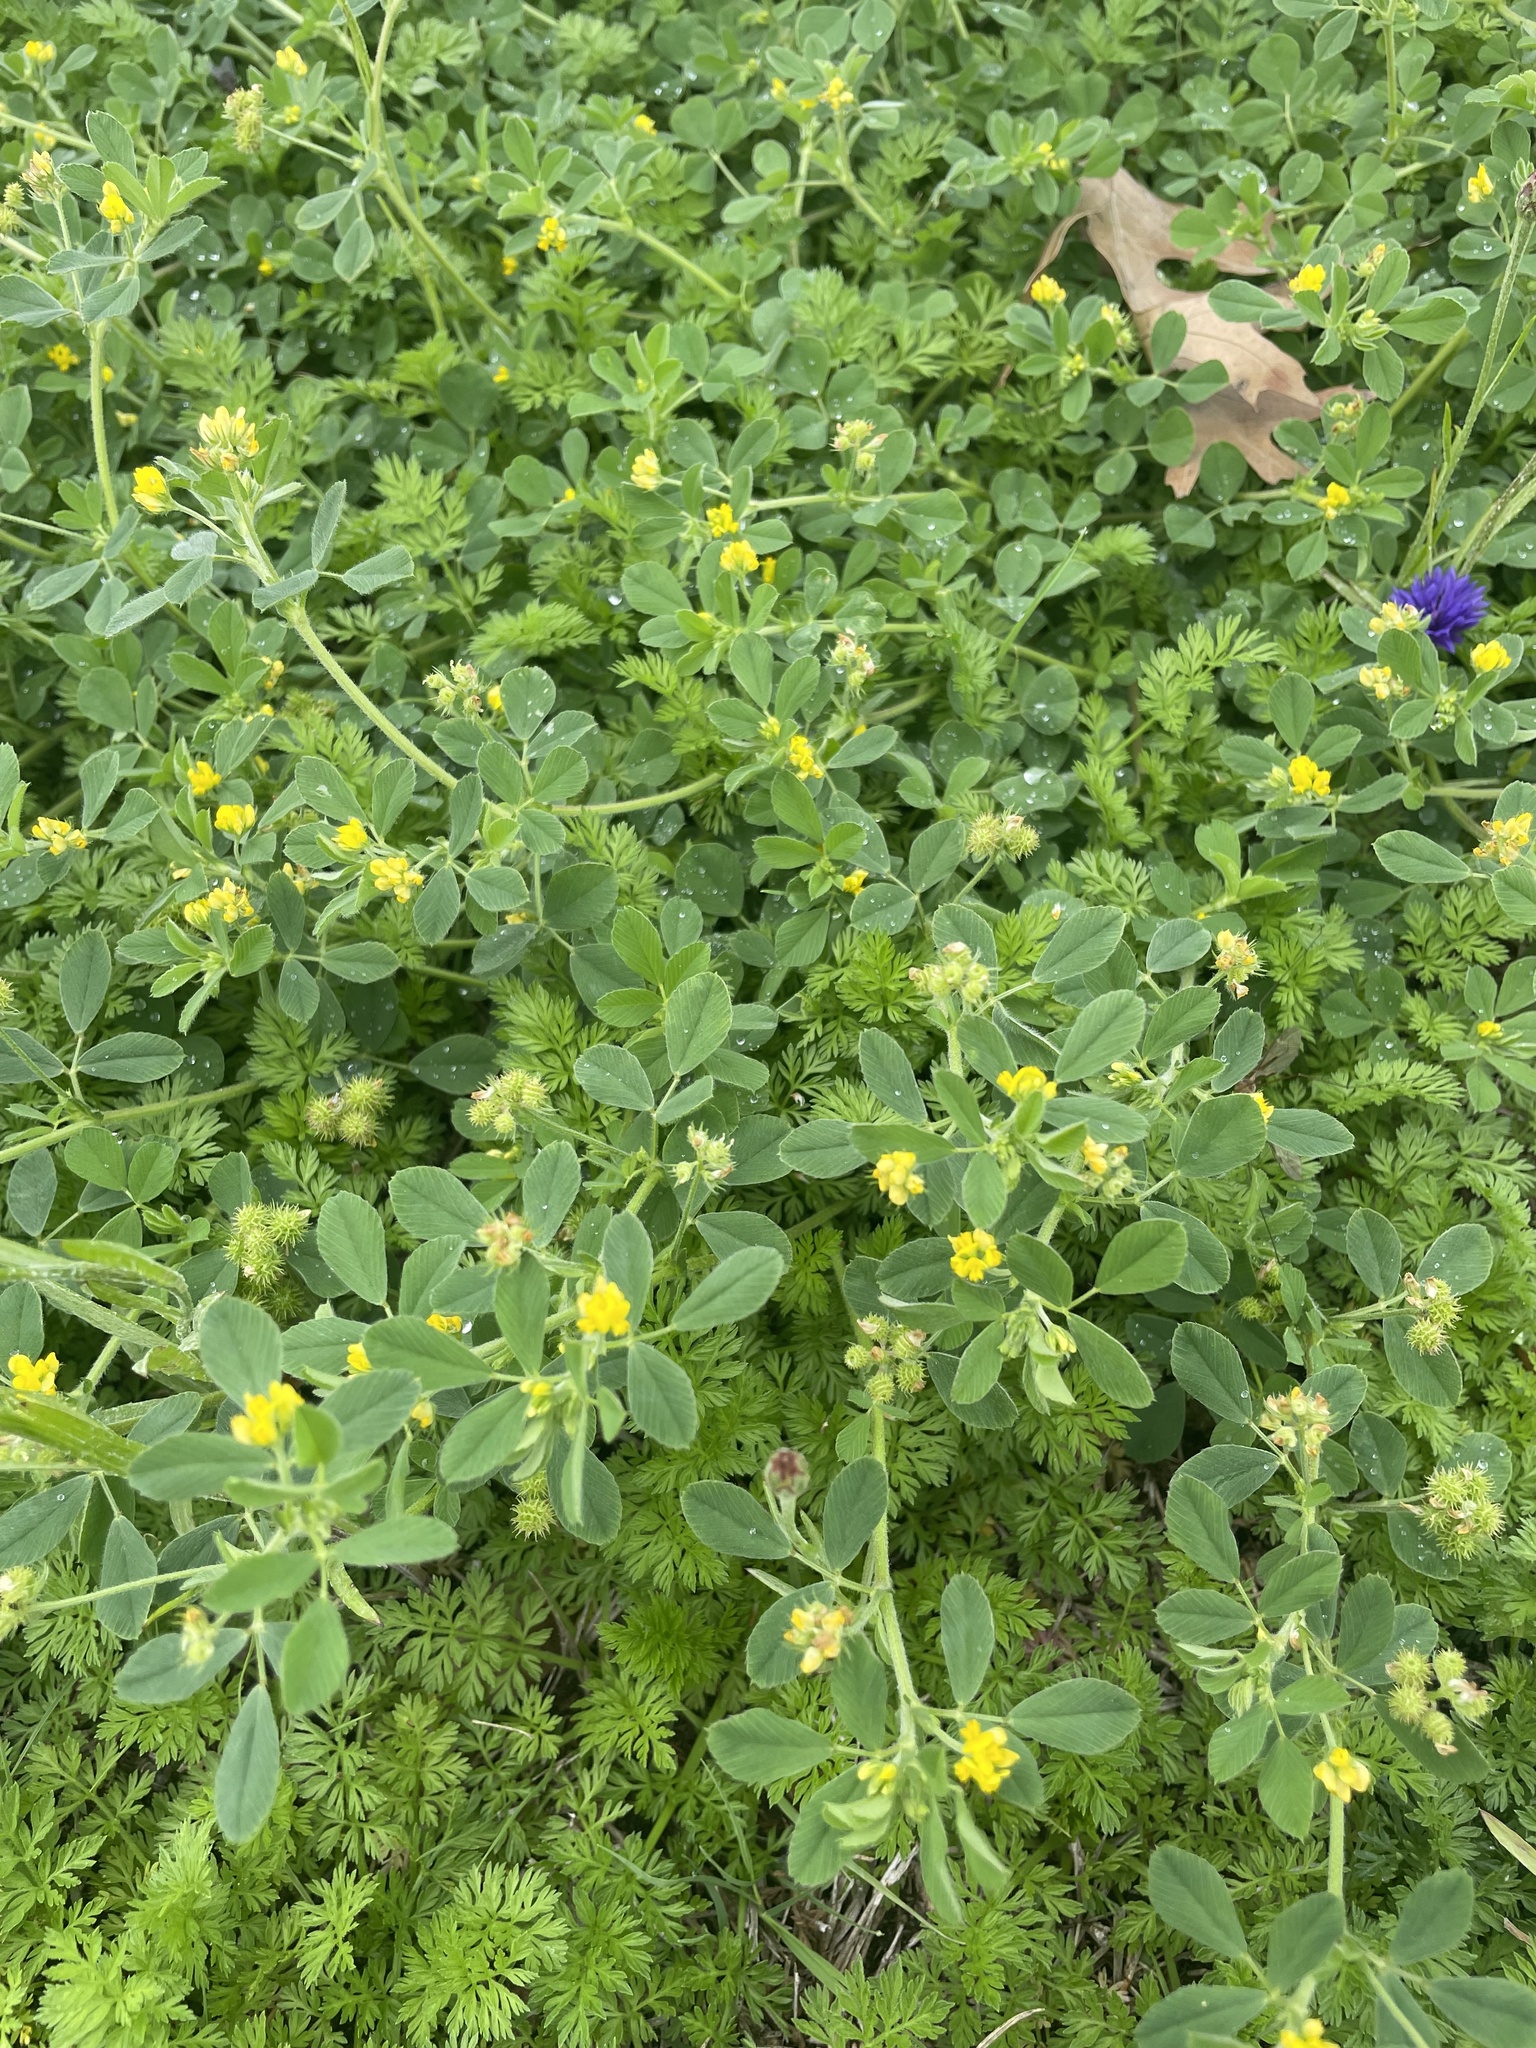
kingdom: Plantae
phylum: Tracheophyta
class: Magnoliopsida
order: Fabales
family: Fabaceae
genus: Medicago
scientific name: Medicago minima
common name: Little bur-clover
